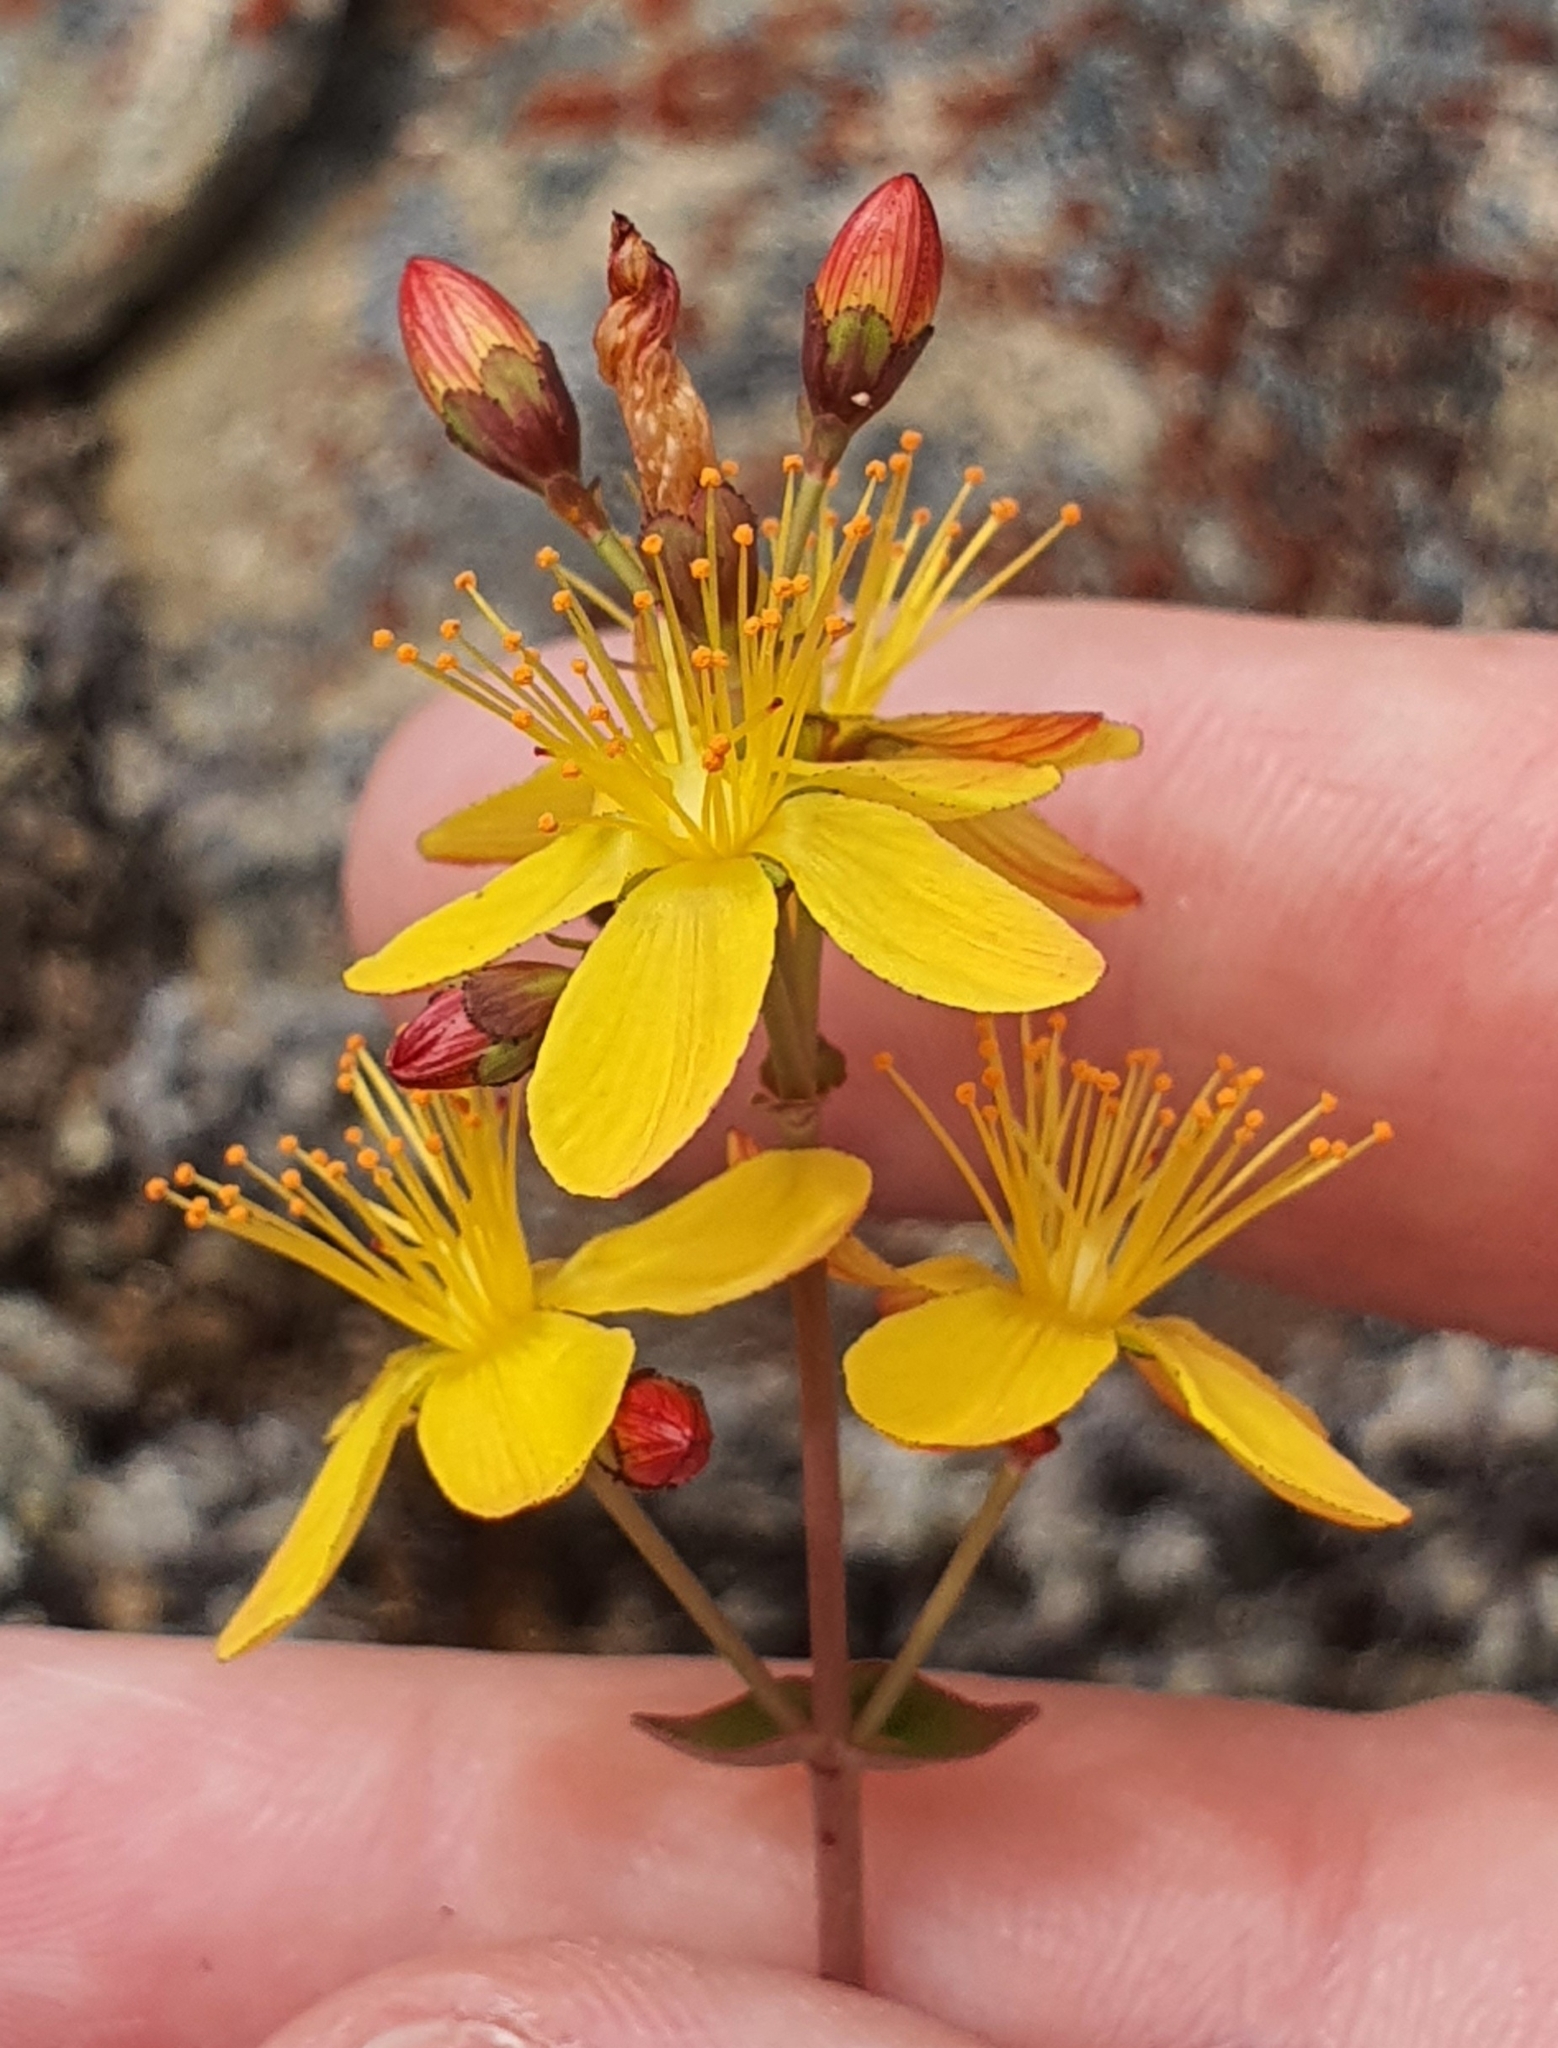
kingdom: Plantae
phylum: Tracheophyta
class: Magnoliopsida
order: Malpighiales
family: Hypericaceae
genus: Hypericum
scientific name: Hypericum pulchrum
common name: Slender st. john's-wort
